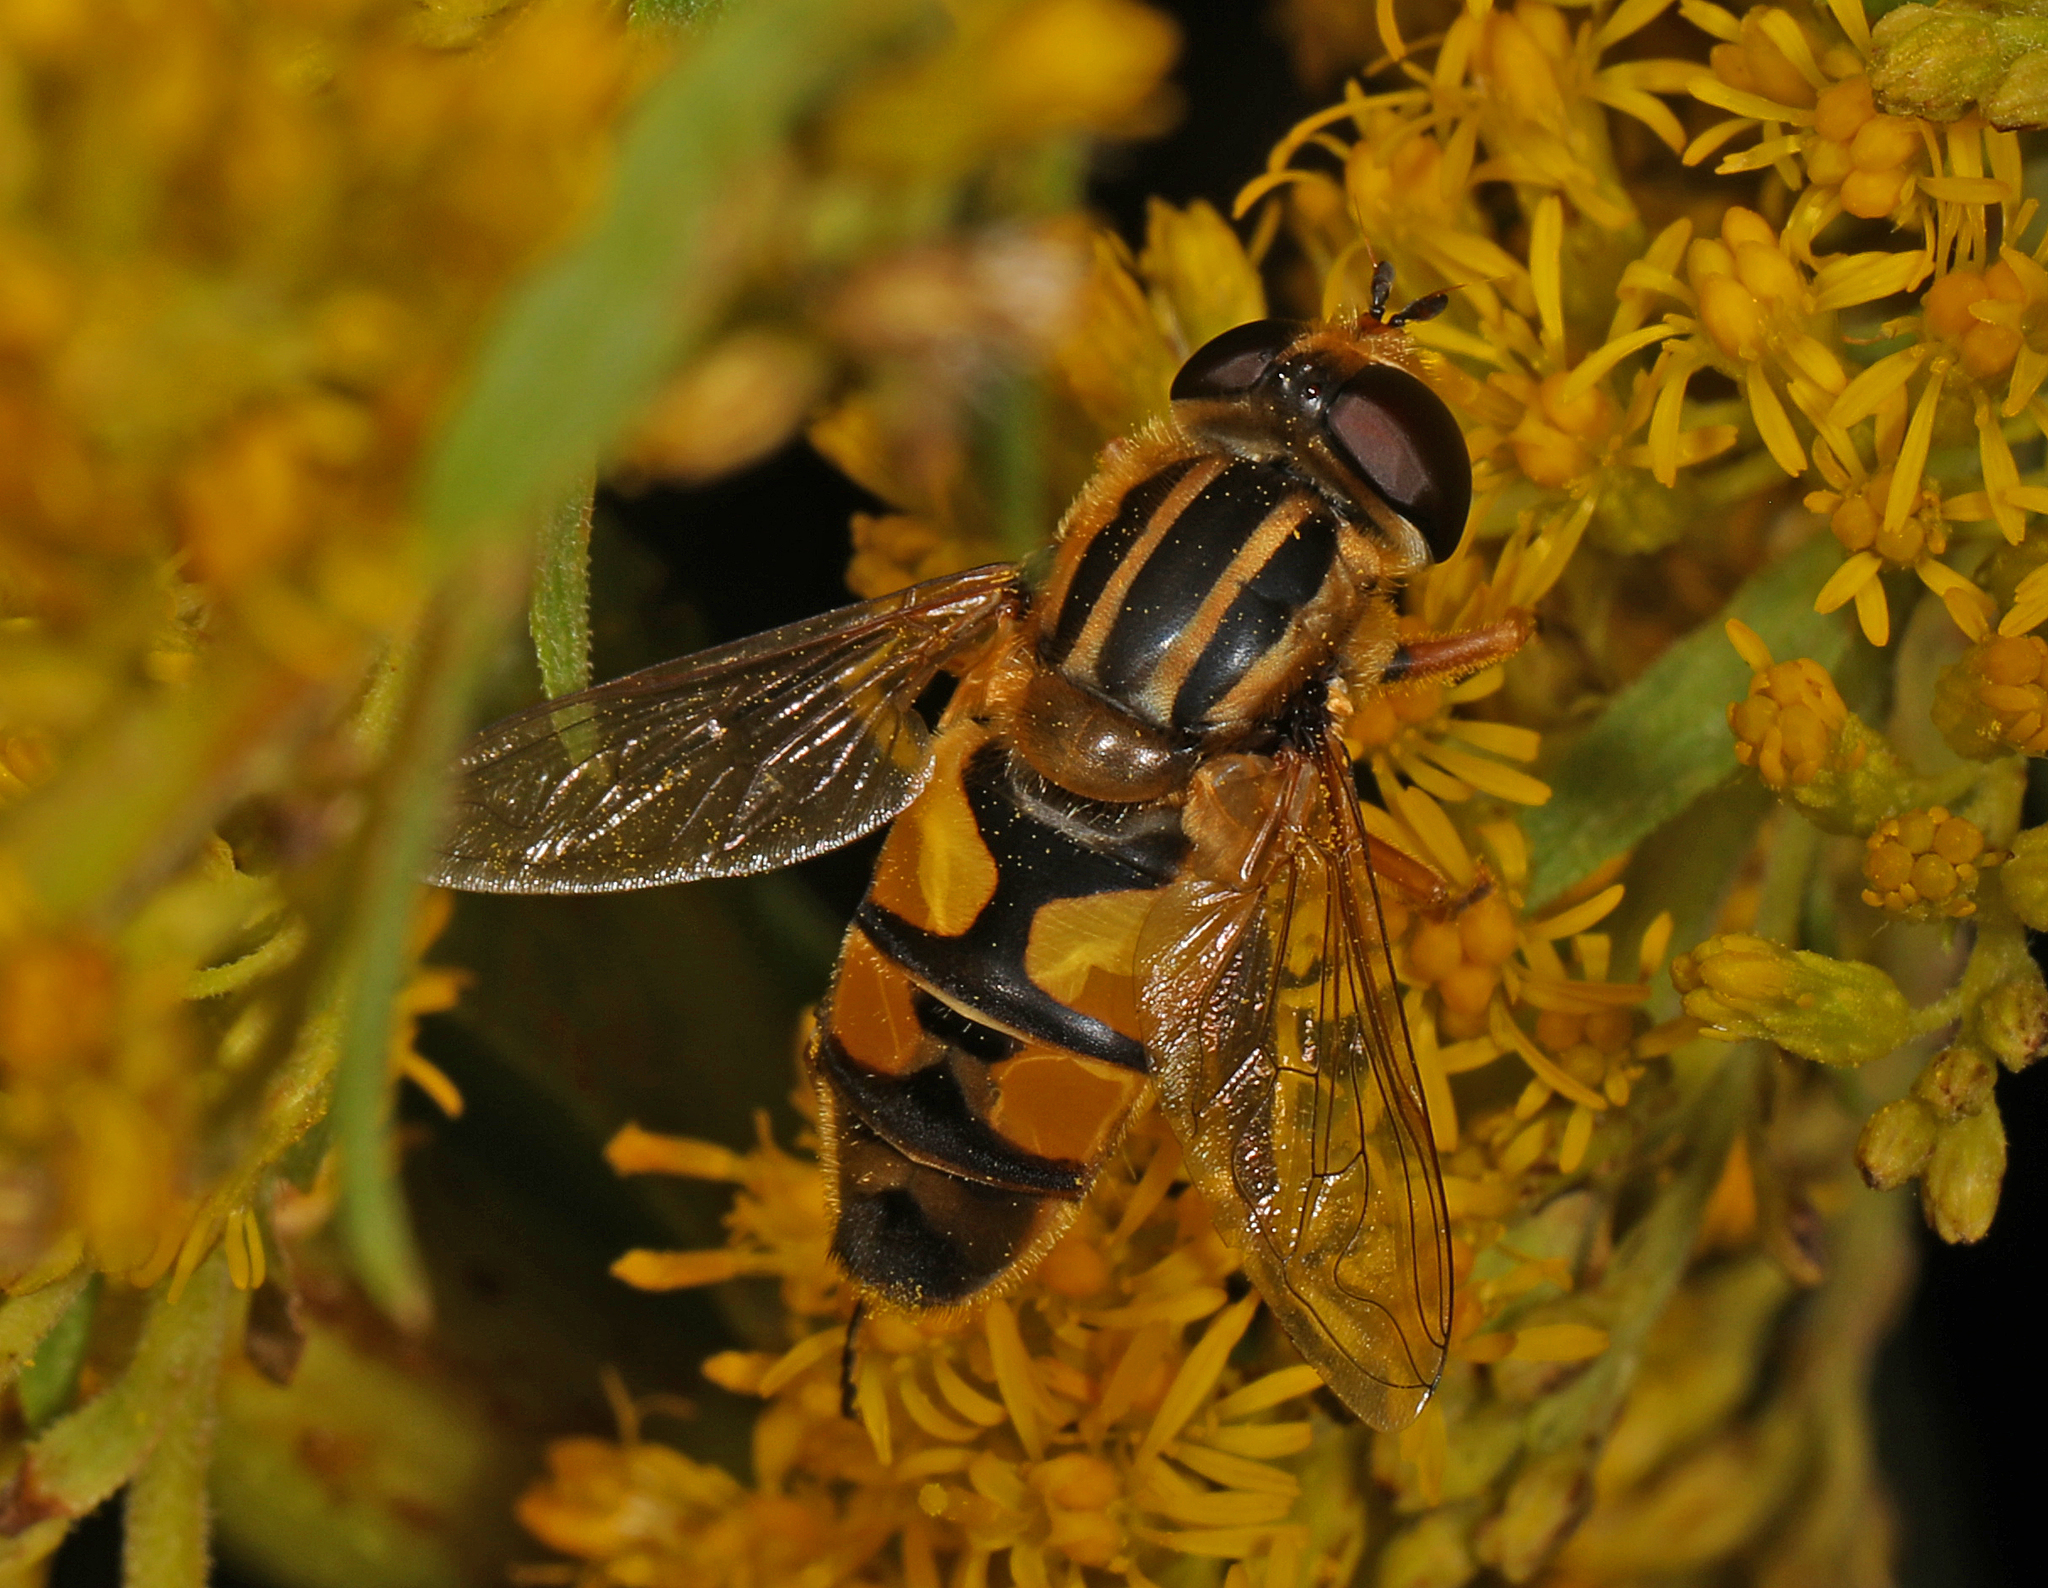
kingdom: Animalia
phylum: Arthropoda
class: Insecta
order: Diptera
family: Syrphidae
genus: Helophilus
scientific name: Helophilus latifrons
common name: Broad-headed marsh fly
